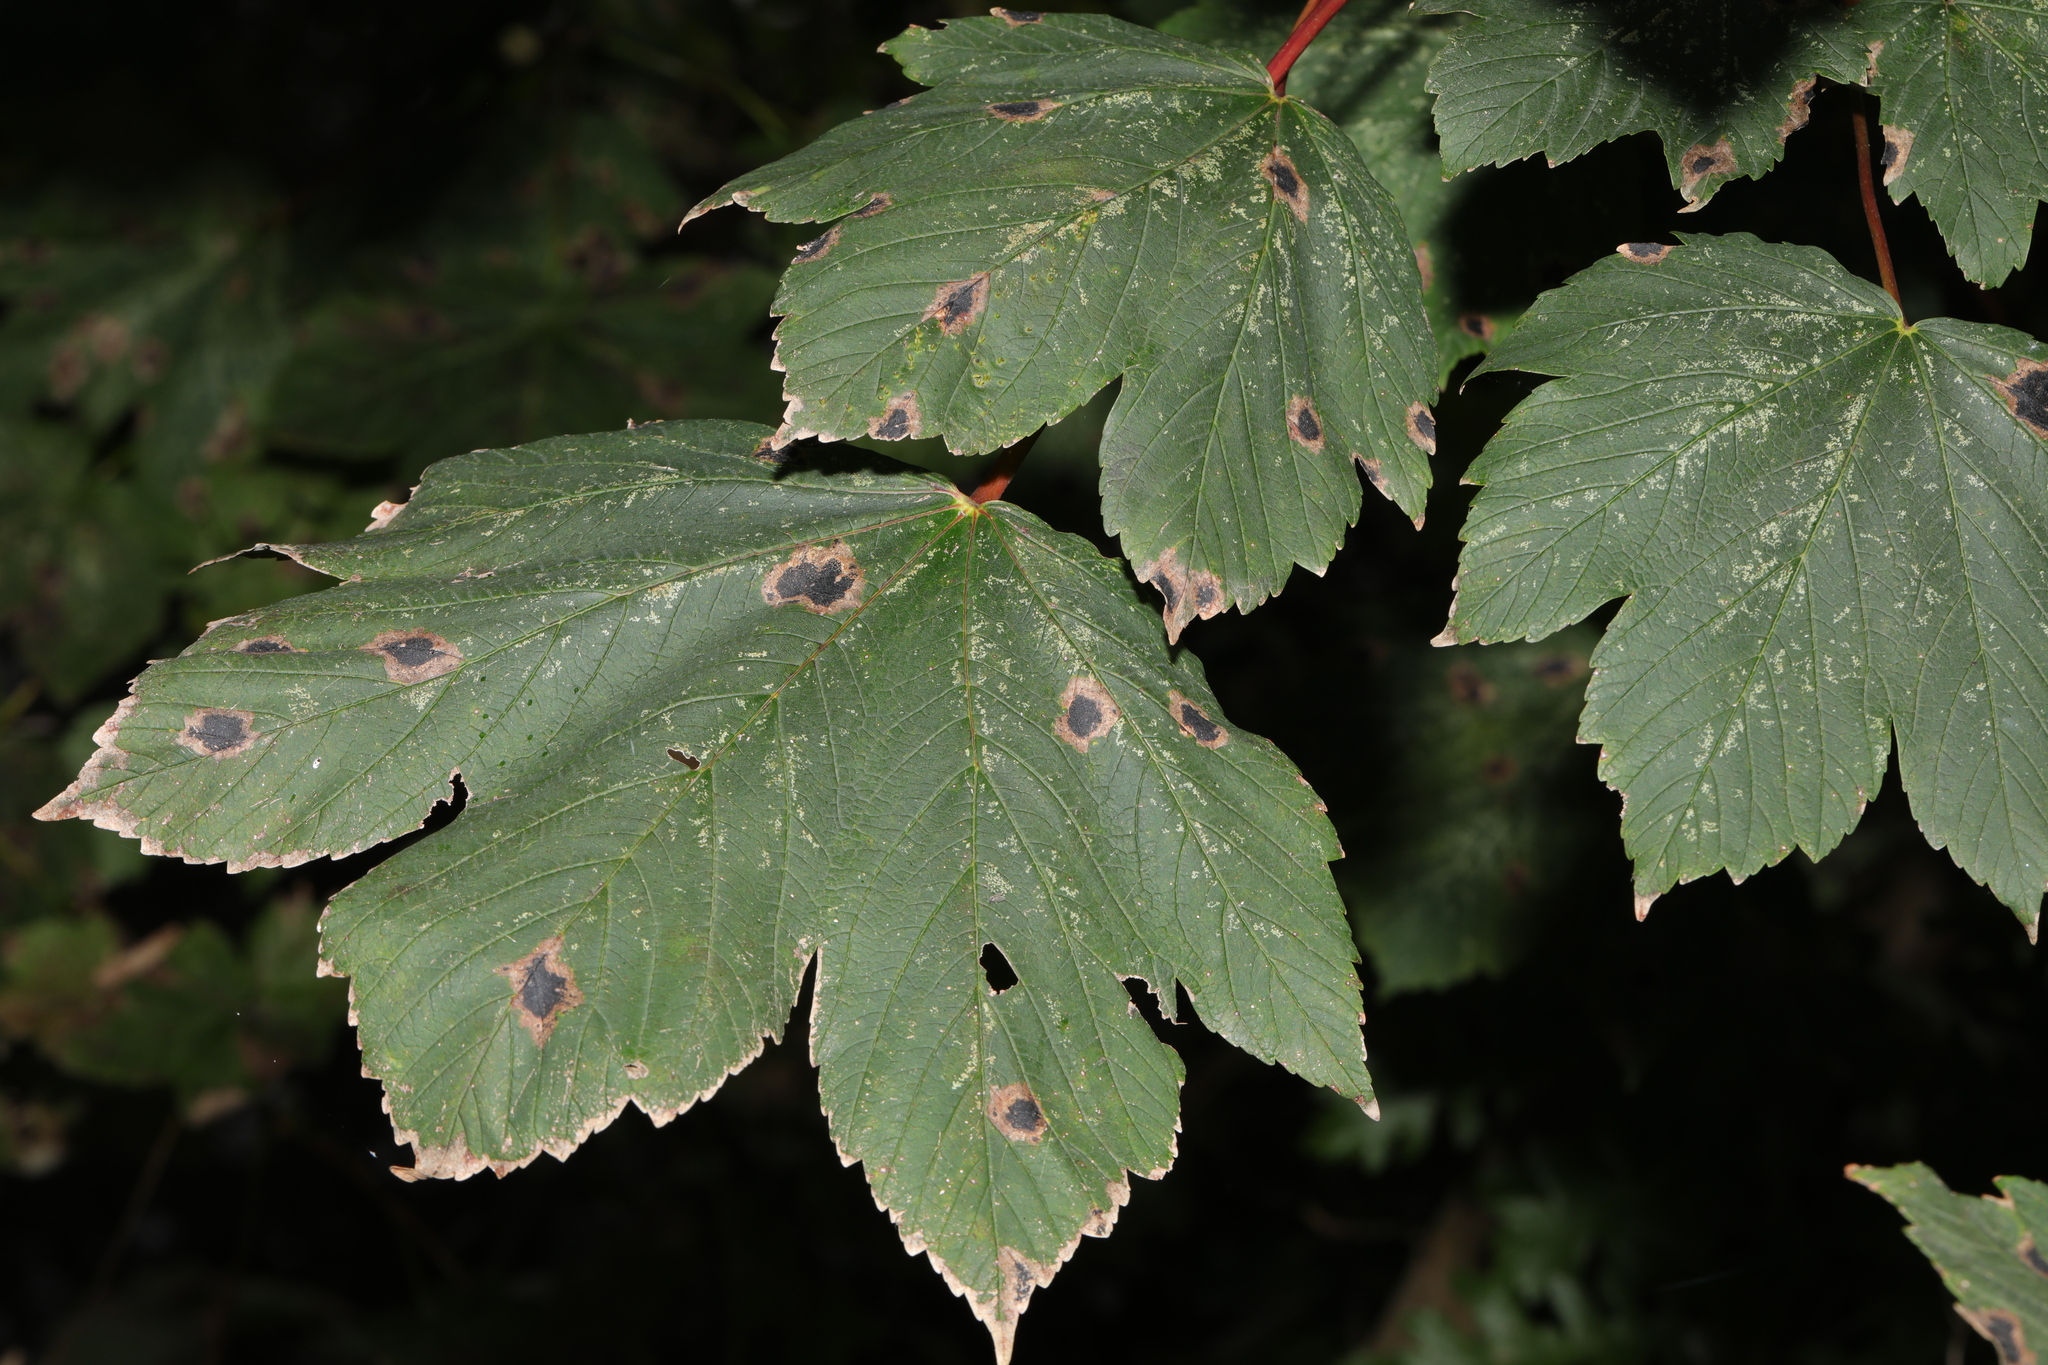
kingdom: Plantae
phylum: Tracheophyta
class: Magnoliopsida
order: Sapindales
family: Sapindaceae
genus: Acer
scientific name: Acer pseudoplatanus
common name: Sycamore
